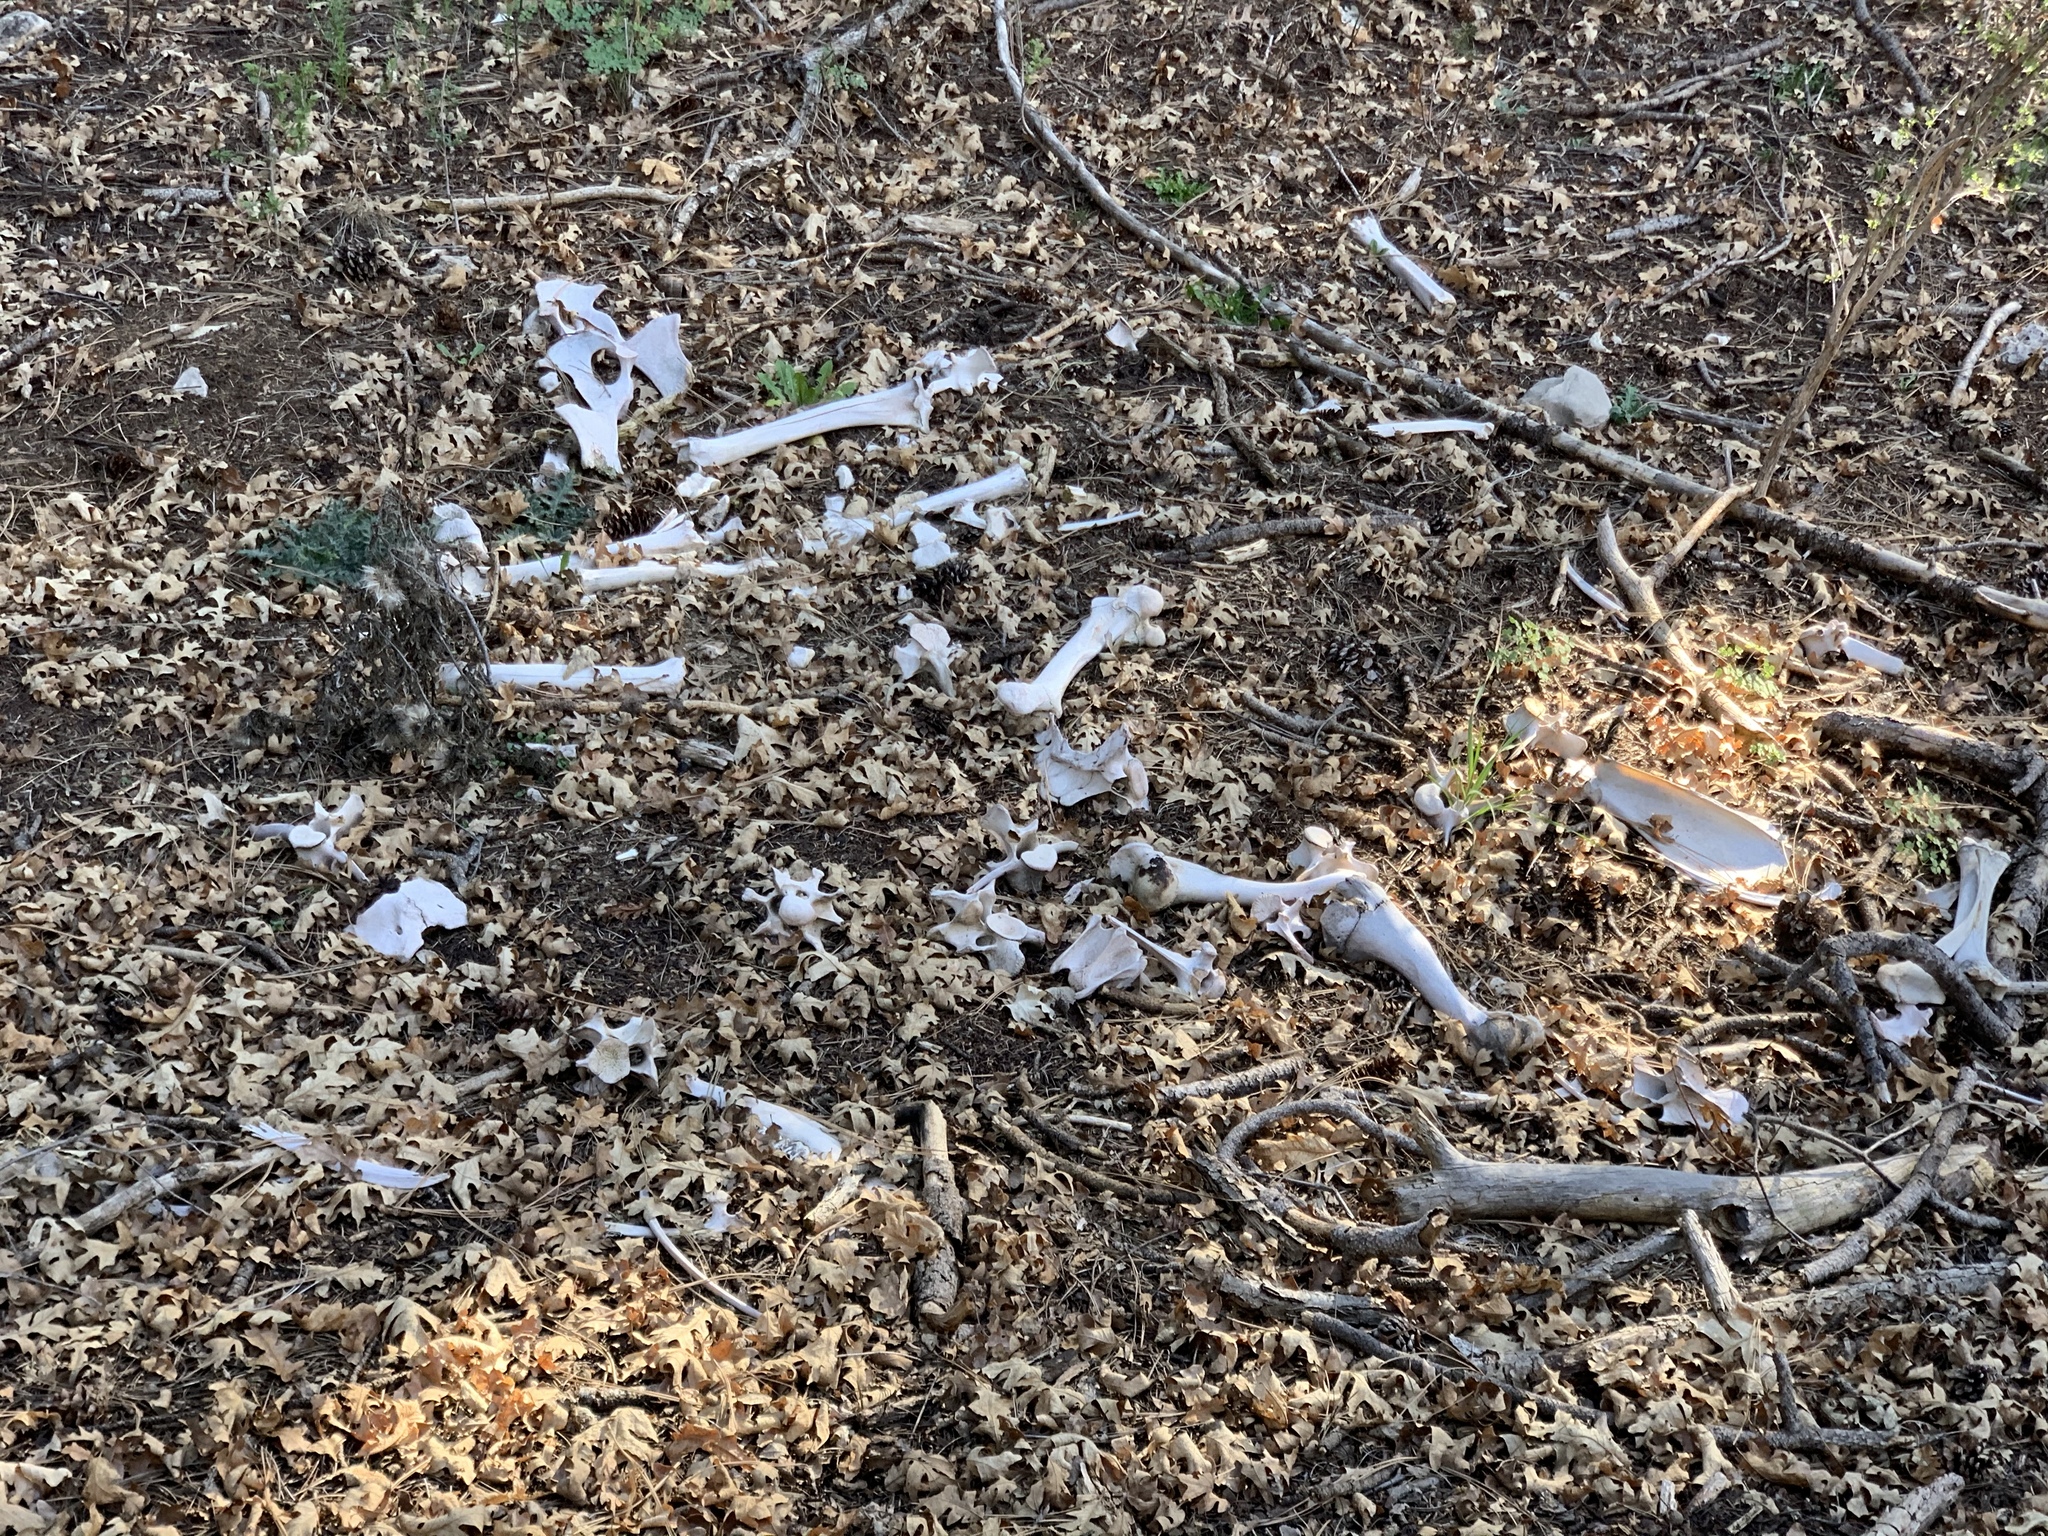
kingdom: Animalia
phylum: Chordata
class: Mammalia
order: Artiodactyla
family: Cervidae
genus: Cervus
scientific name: Cervus elaphus
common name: Red deer
